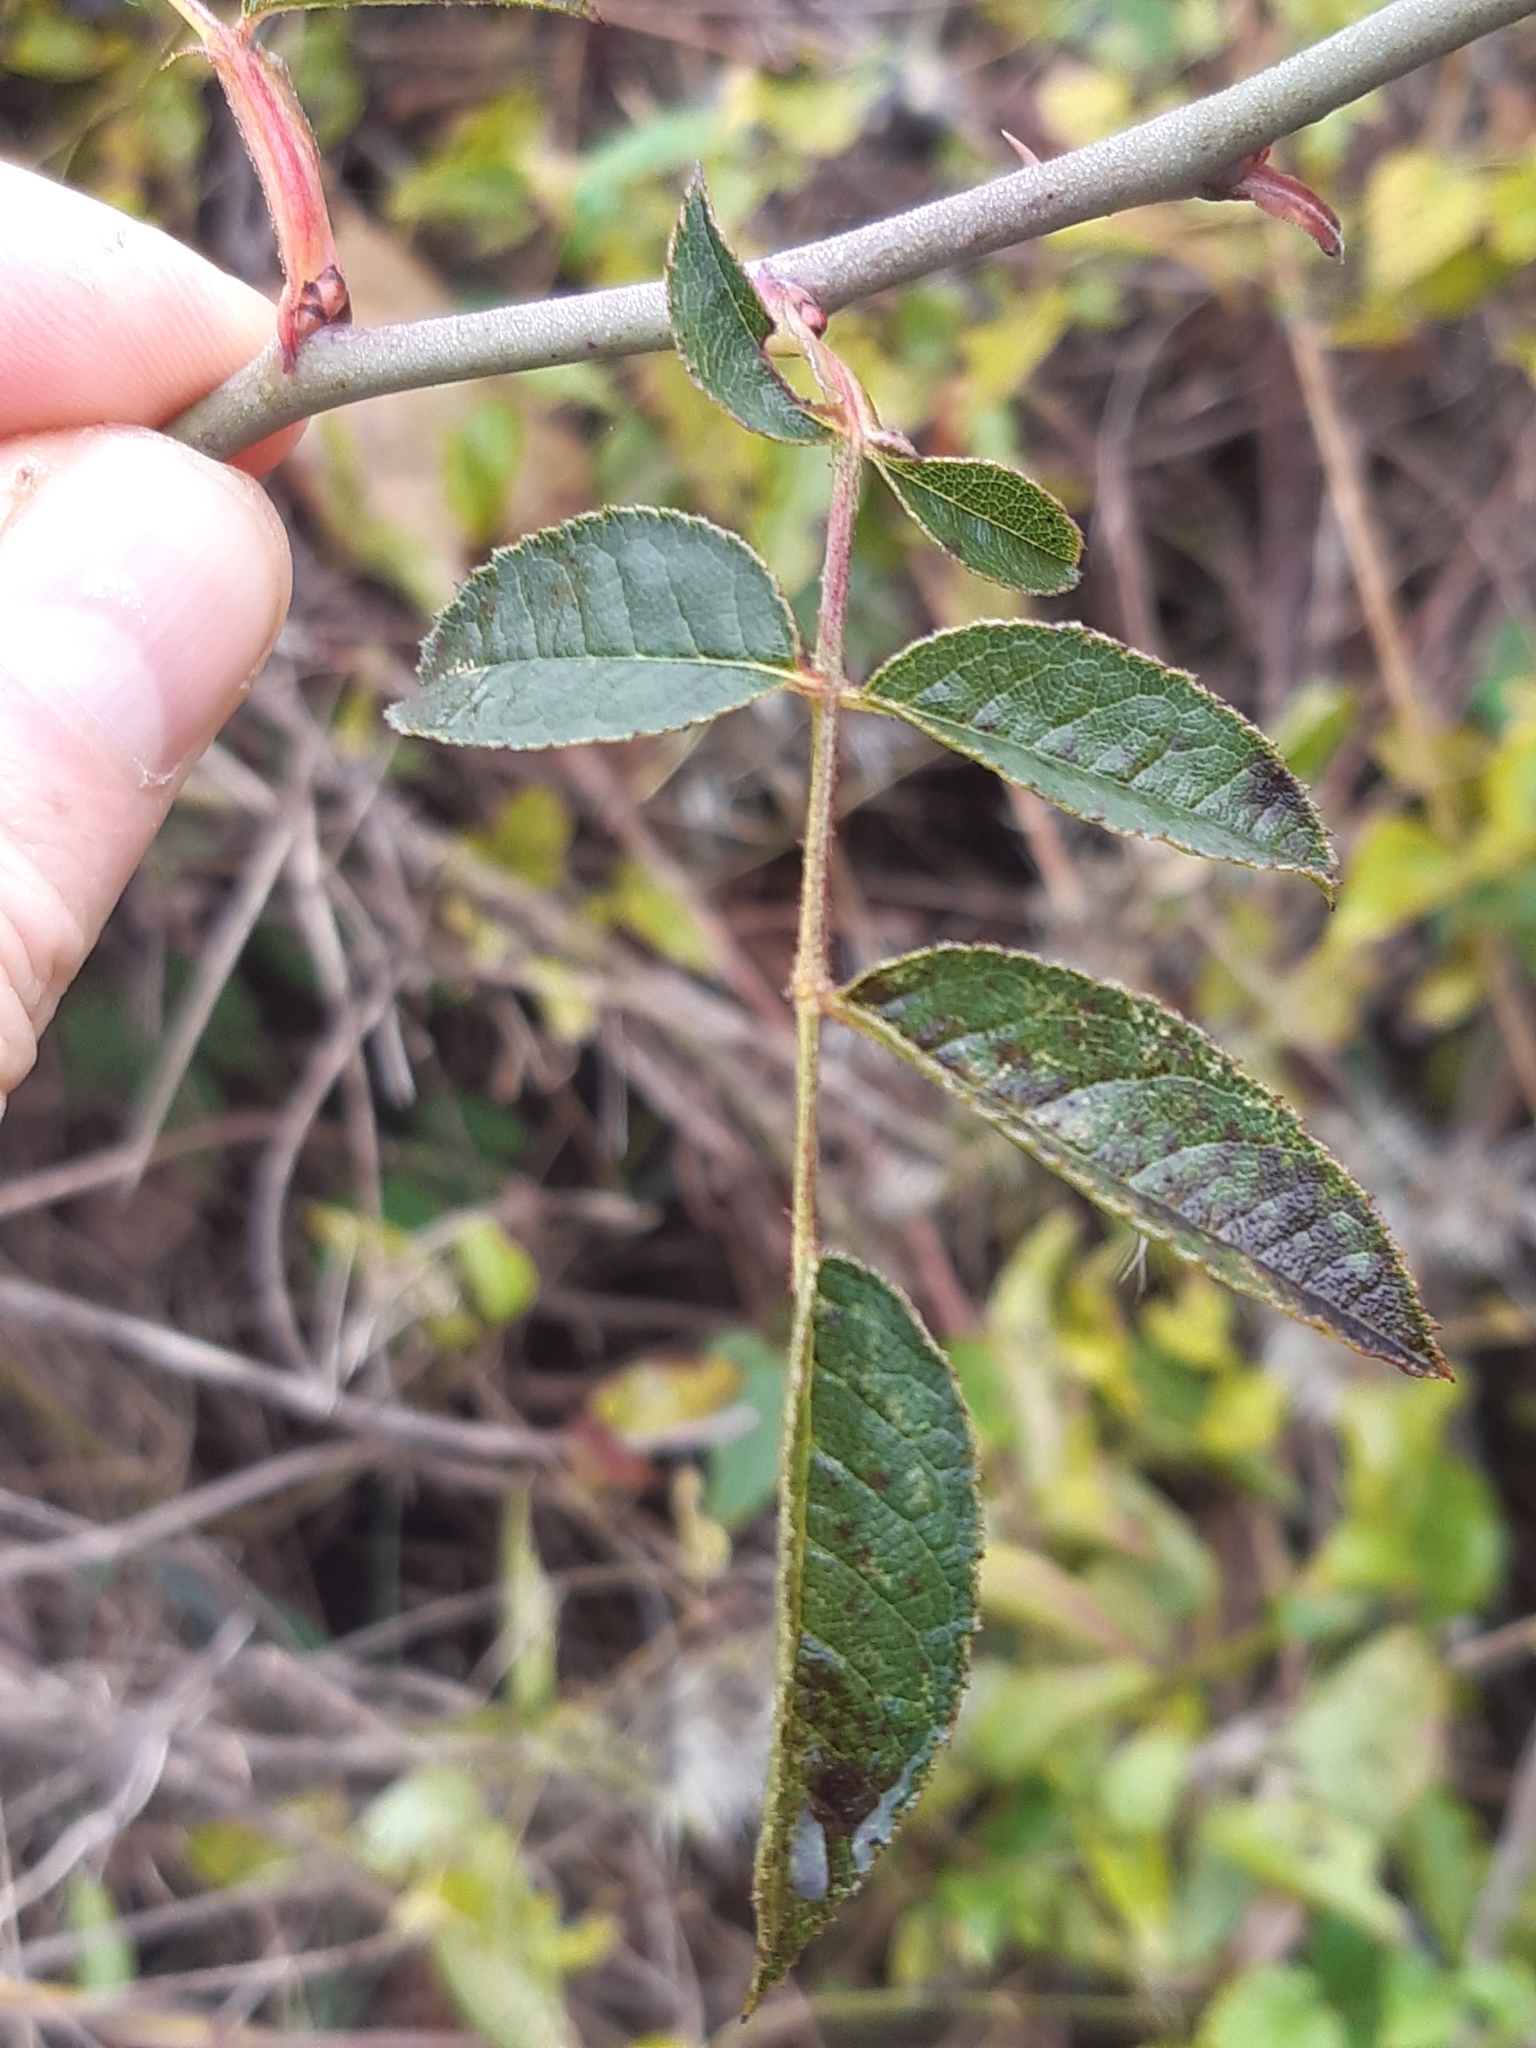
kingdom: Plantae
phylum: Tracheophyta
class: Magnoliopsida
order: Rosales
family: Rosaceae
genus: Rosa
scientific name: Rosa marginata
